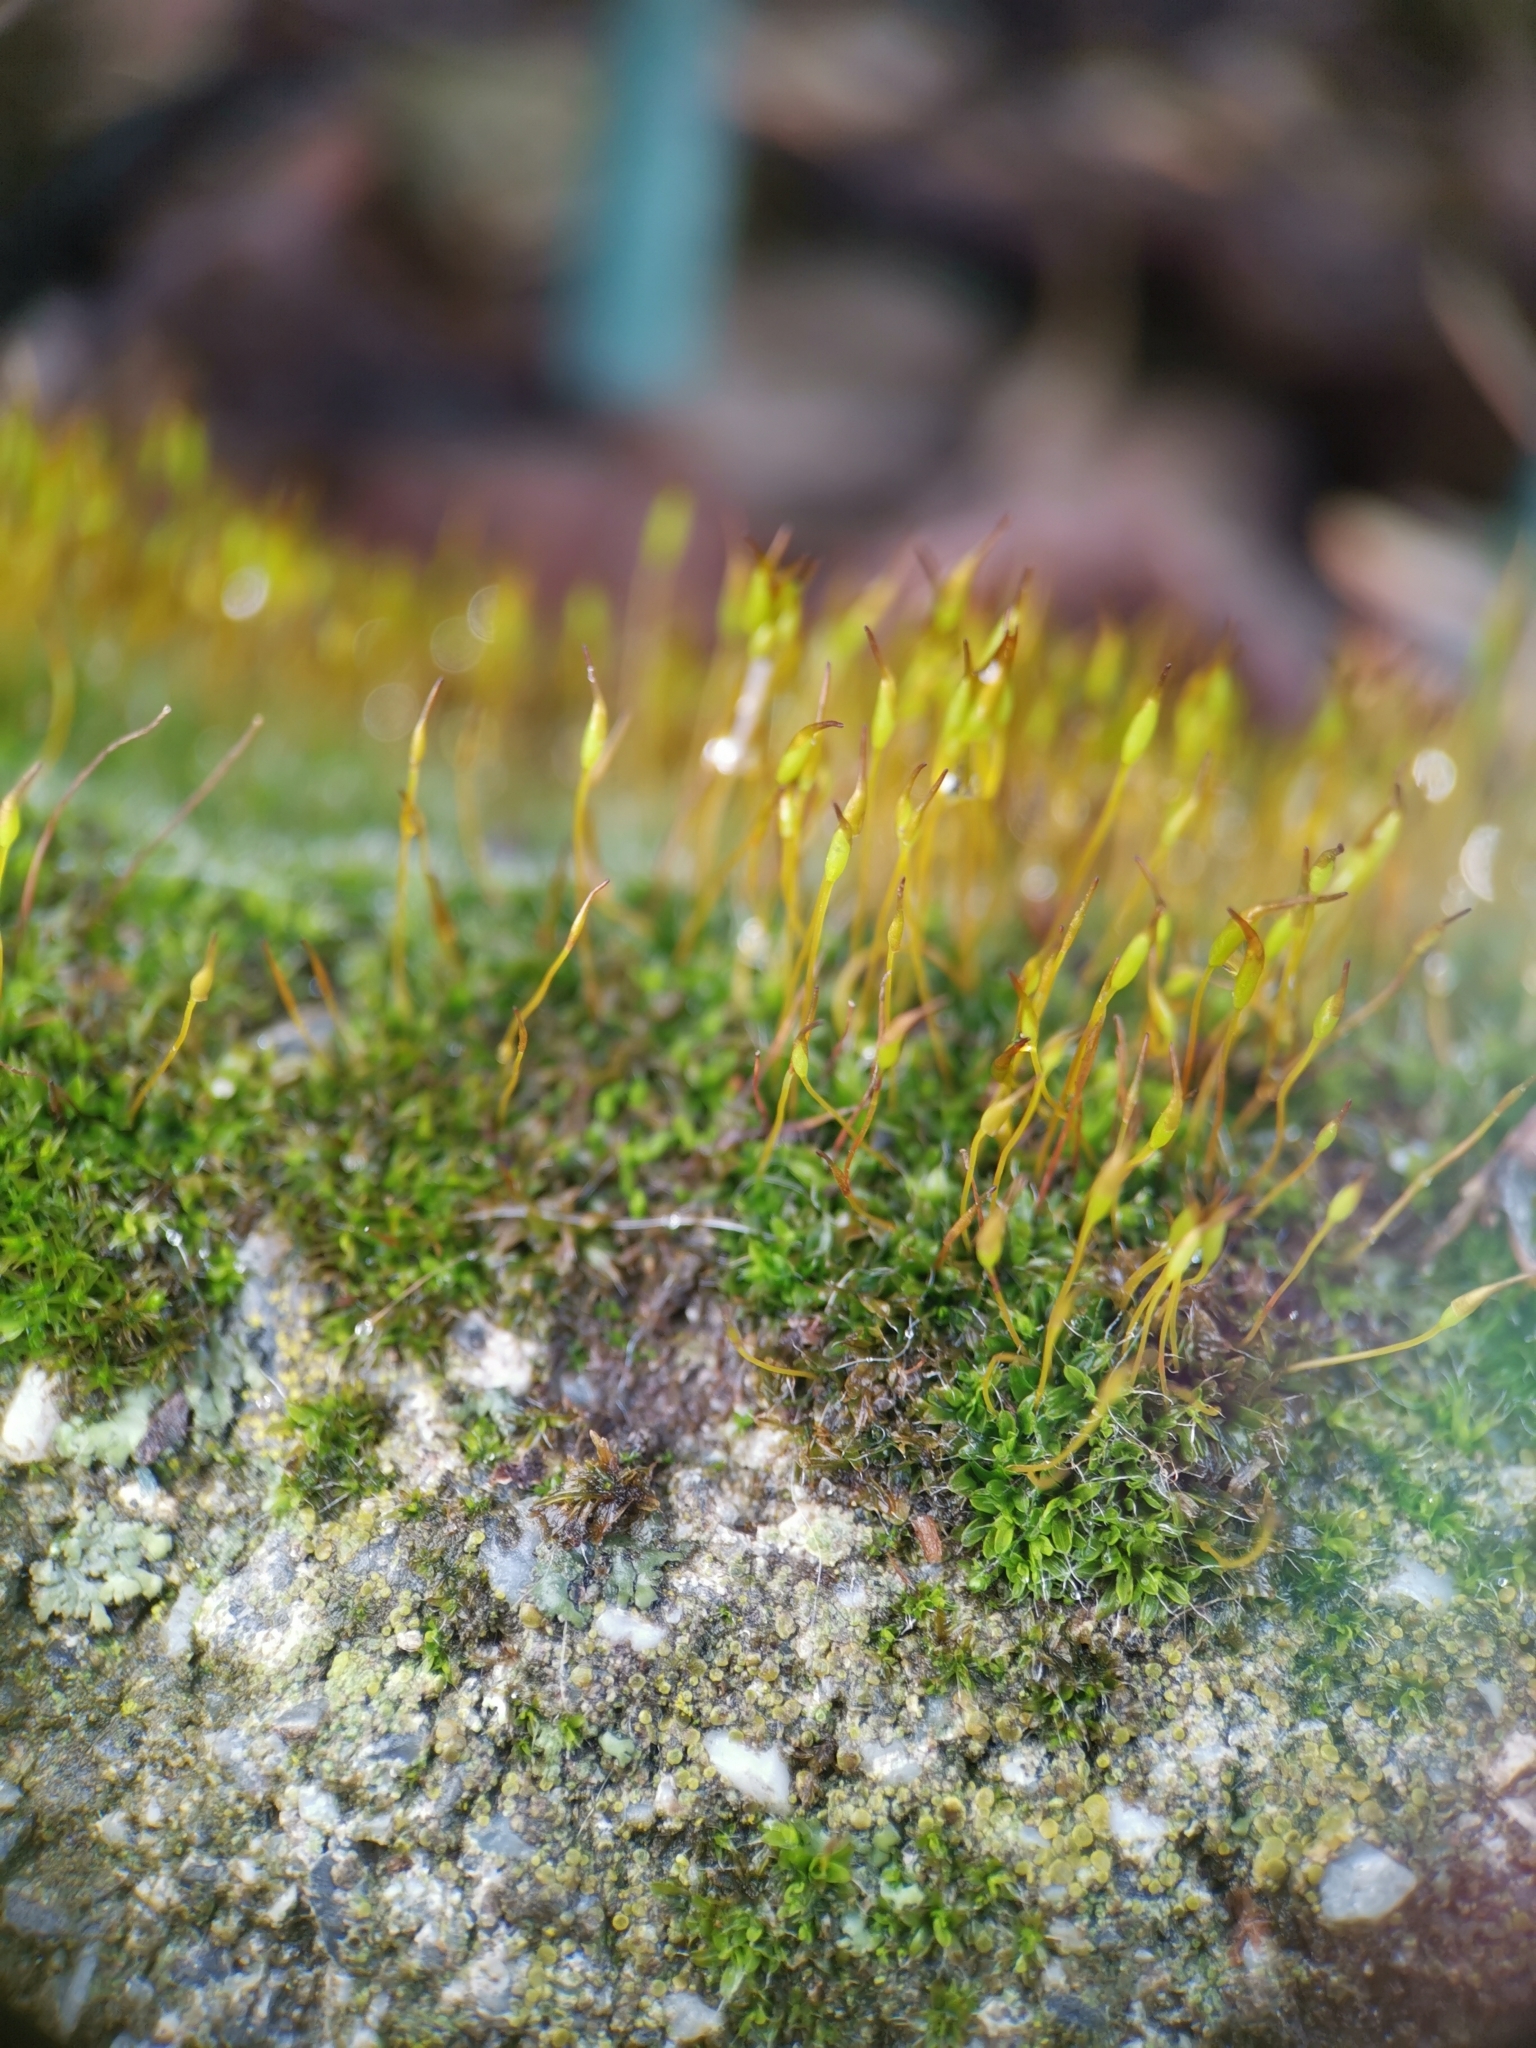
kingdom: Plantae
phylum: Bryophyta
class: Bryopsida
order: Pottiales
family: Pottiaceae
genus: Tortula
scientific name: Tortula muralis
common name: Wall screw-moss
